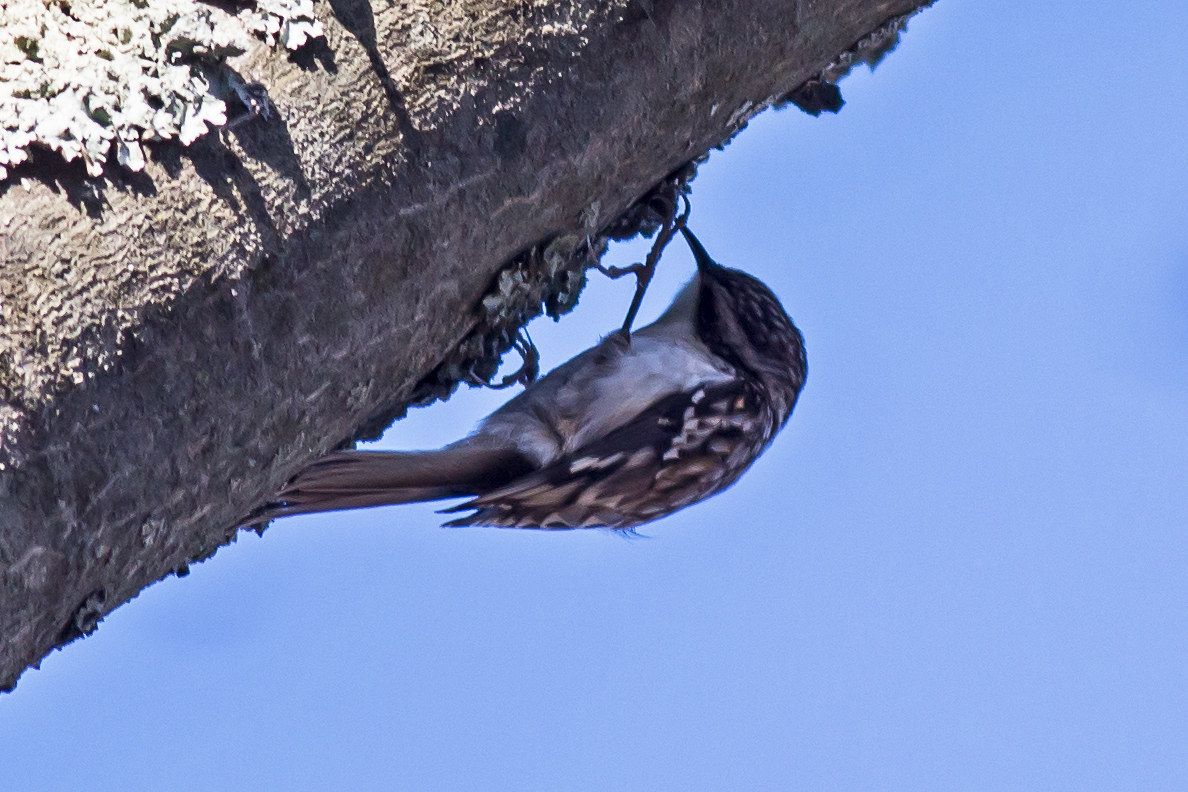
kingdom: Animalia
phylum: Chordata
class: Aves
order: Passeriformes
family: Certhiidae
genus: Certhia
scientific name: Certhia americana
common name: Brown creeper
